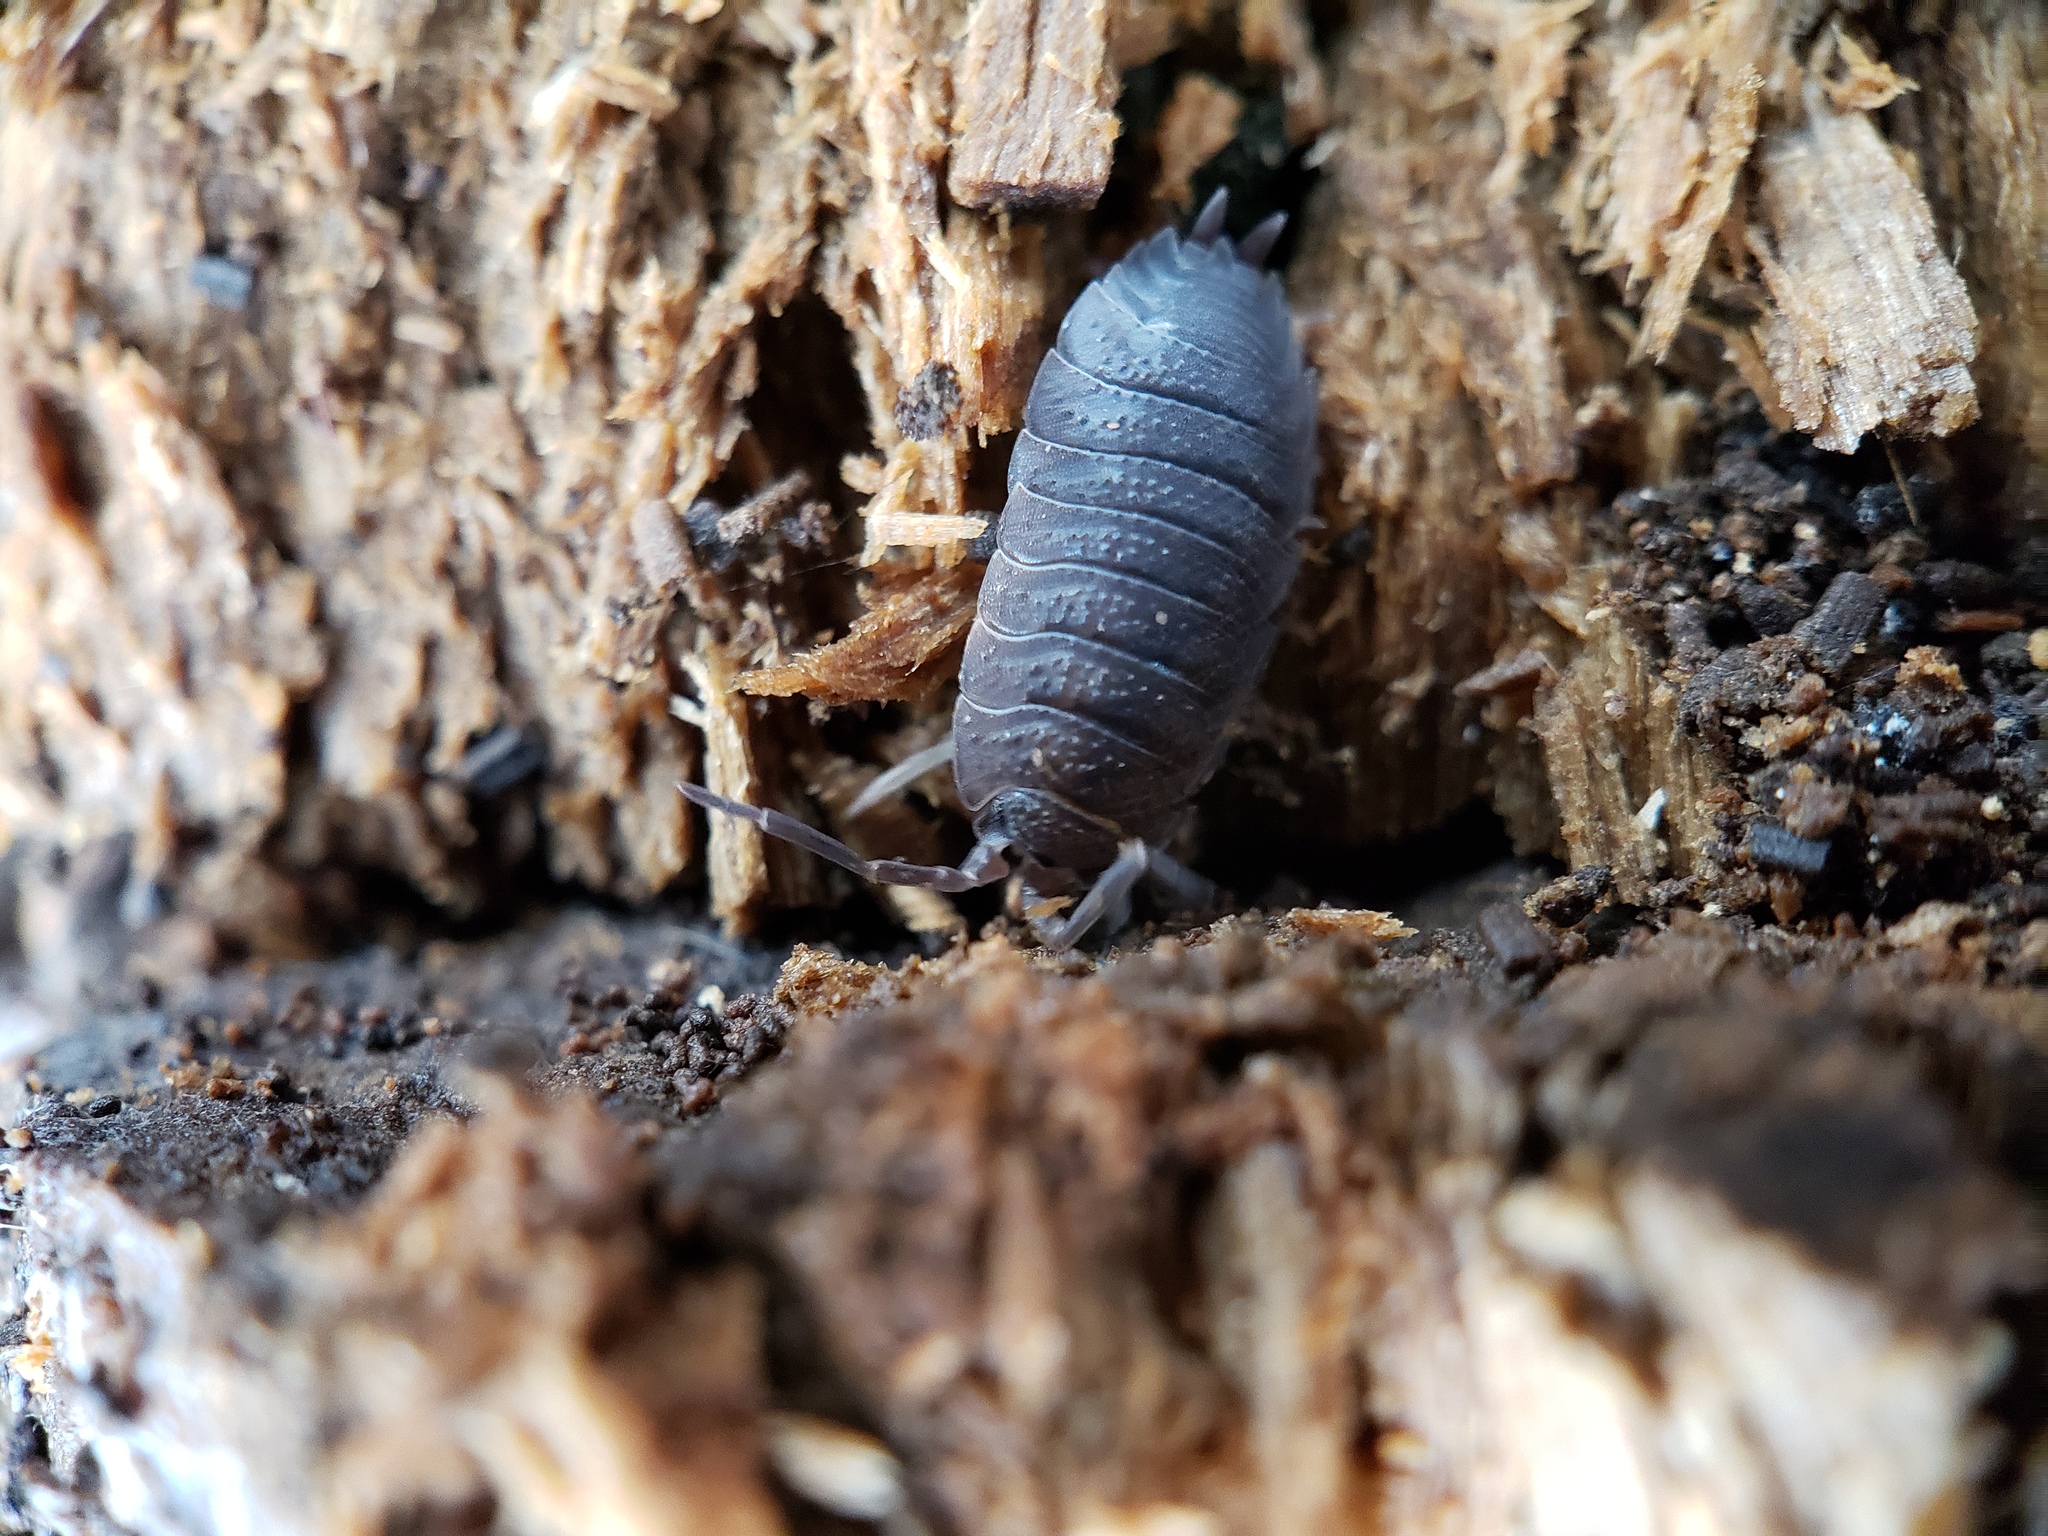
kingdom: Animalia
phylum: Arthropoda
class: Malacostraca
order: Isopoda
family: Porcellionidae
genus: Porcellio
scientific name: Porcellio scaber
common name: Common rough woodlouse
